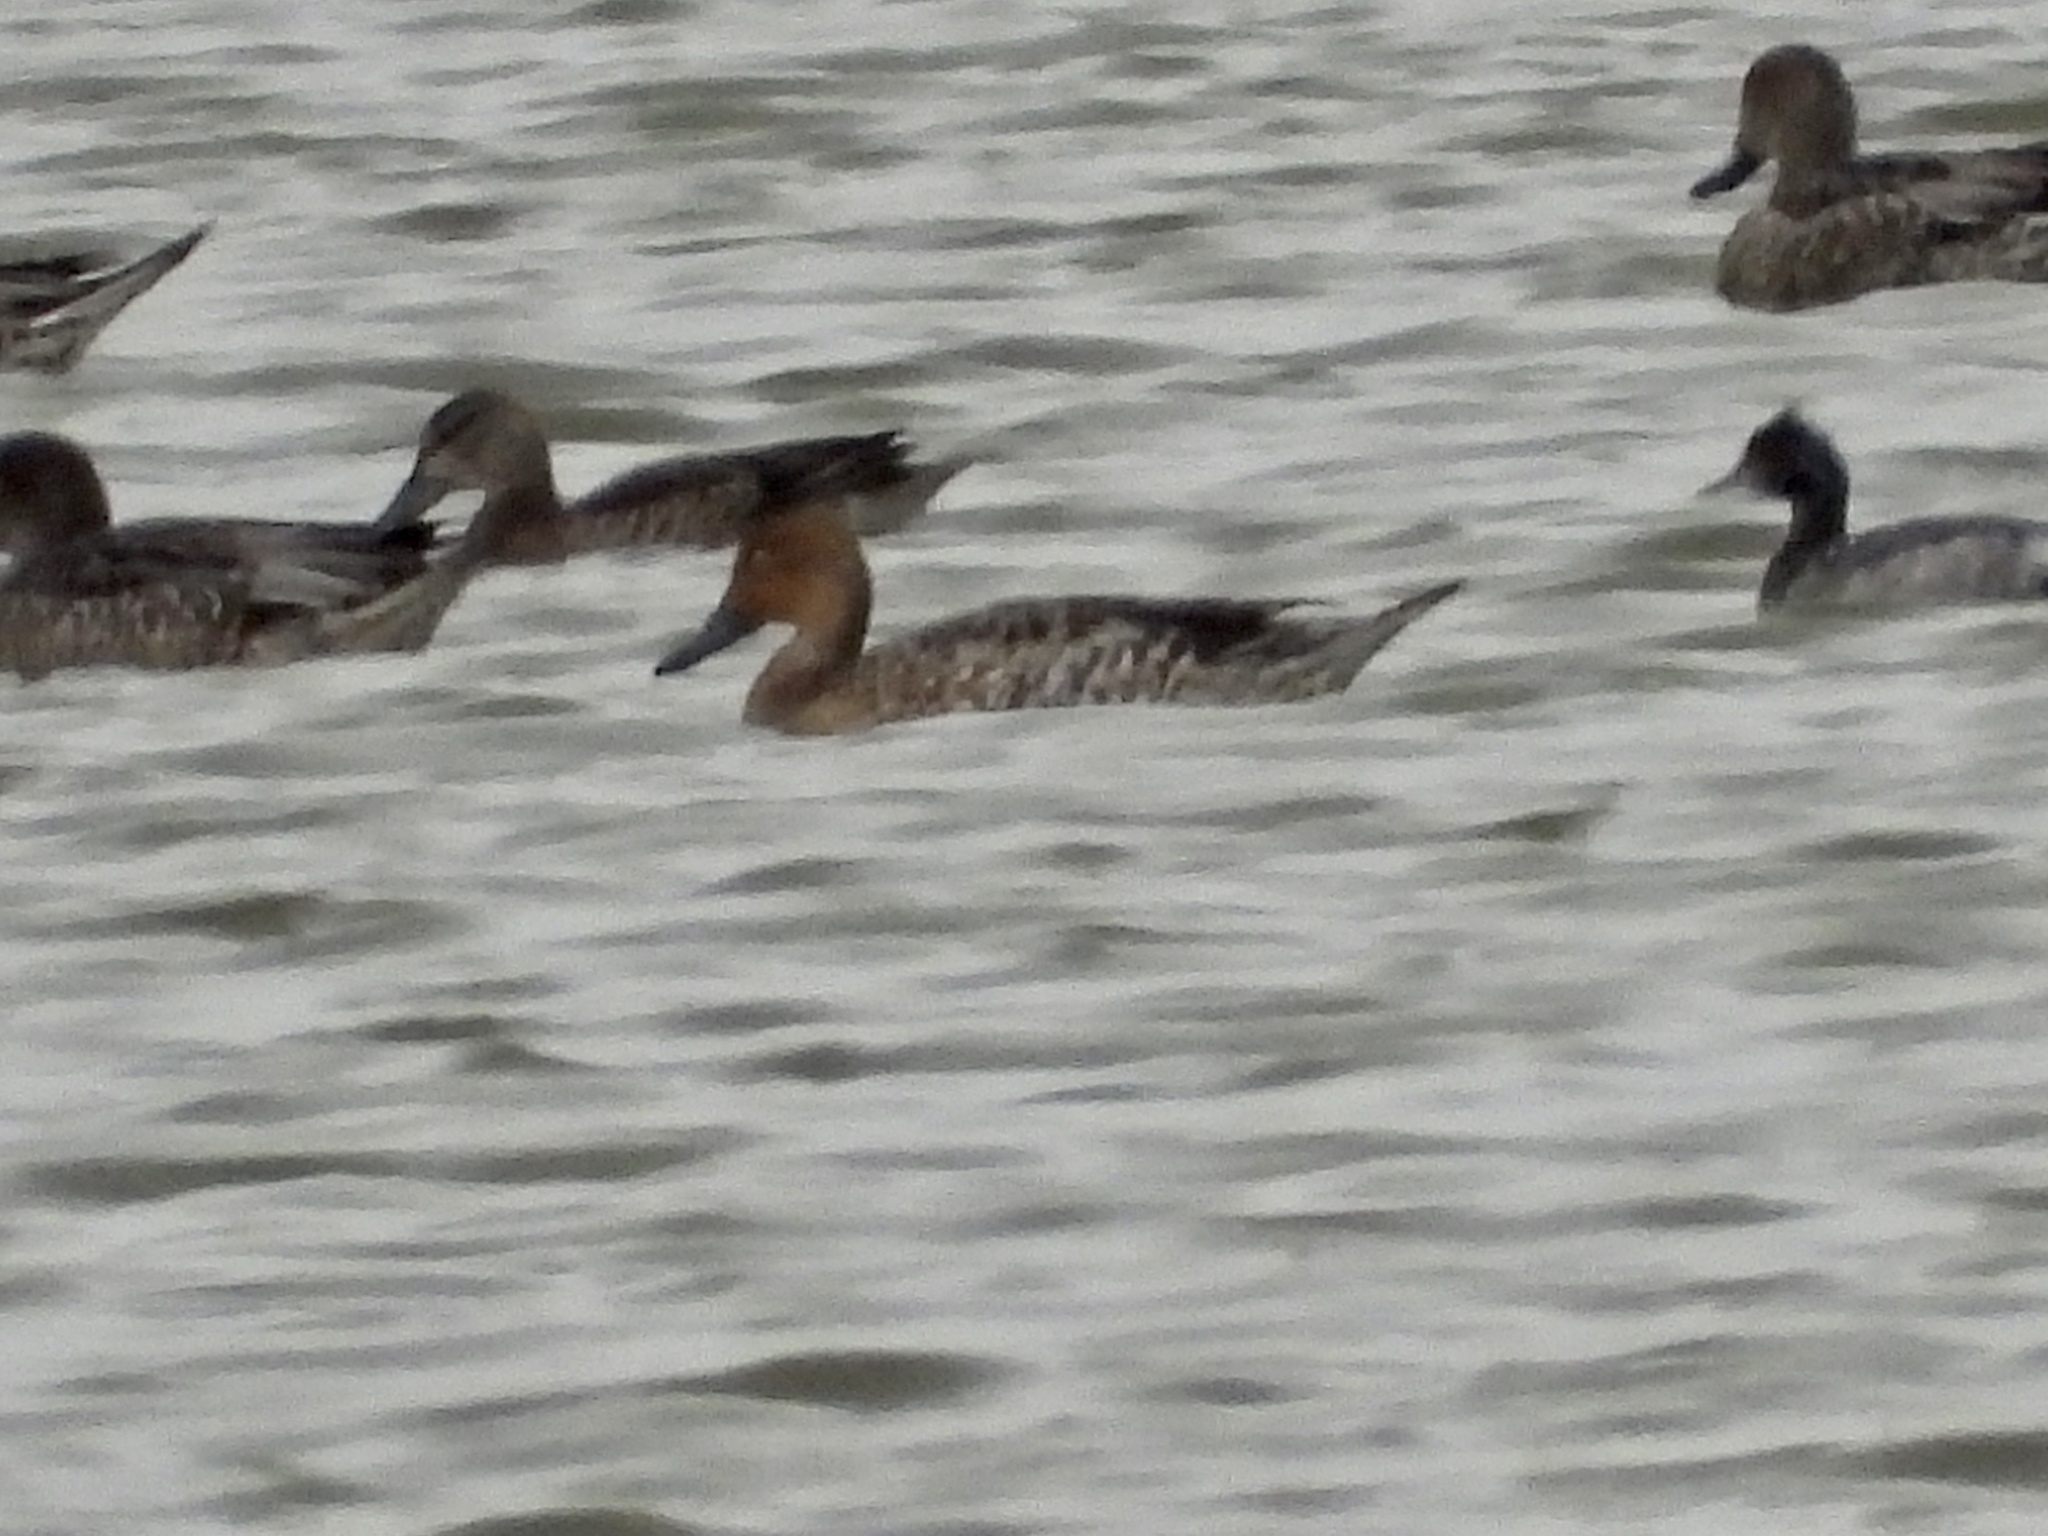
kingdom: Animalia
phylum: Chordata
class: Aves
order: Anseriformes
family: Anatidae
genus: Anas
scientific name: Anas acuta
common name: Northern pintail
